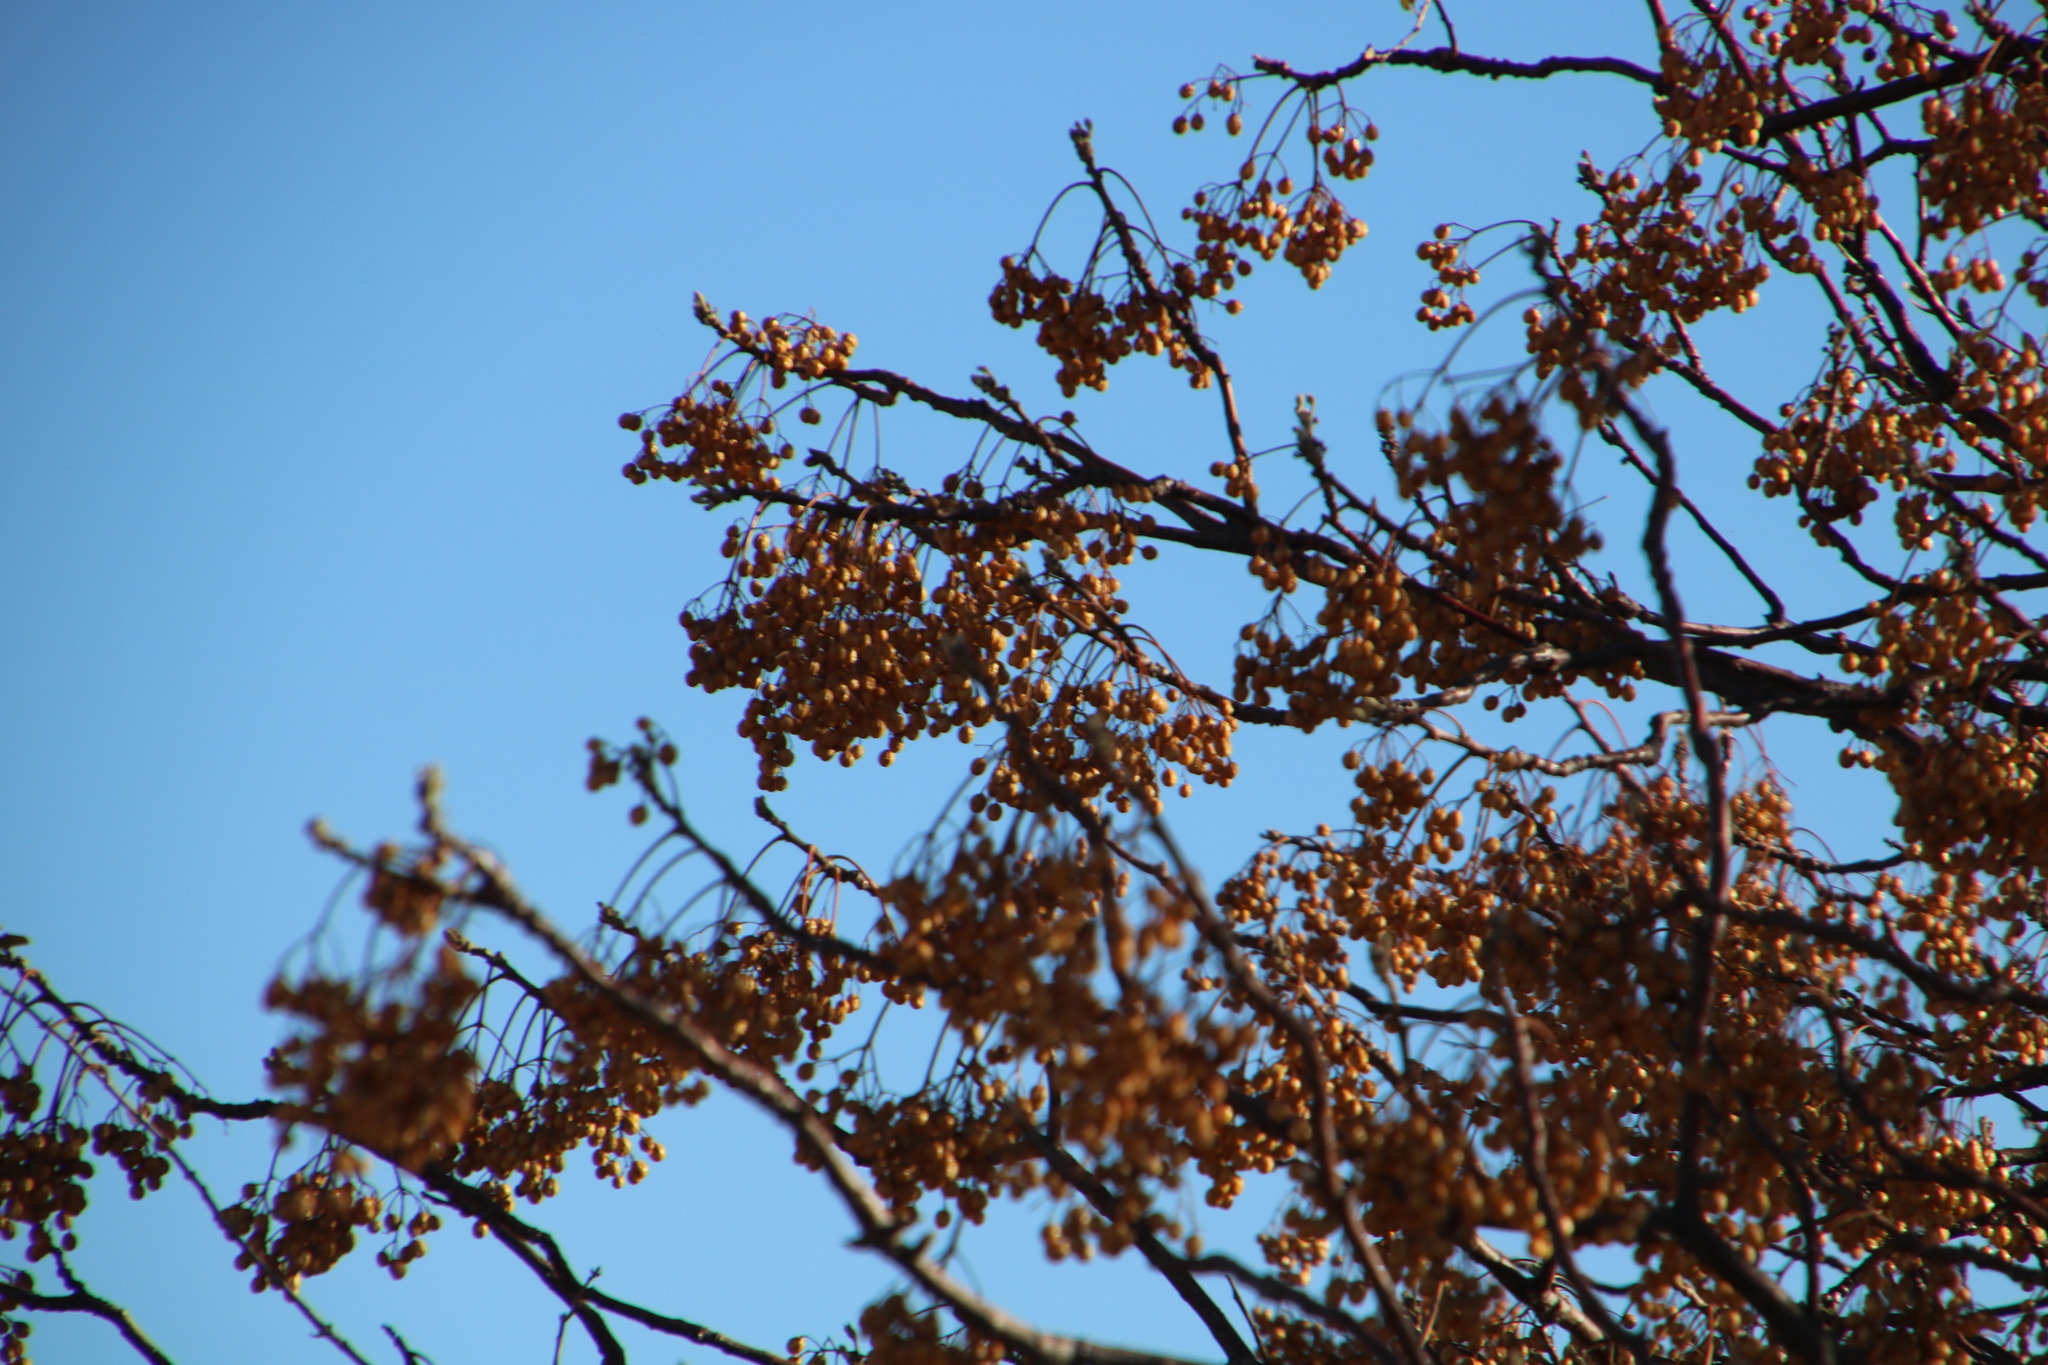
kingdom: Plantae
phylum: Tracheophyta
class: Magnoliopsida
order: Sapindales
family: Meliaceae
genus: Melia
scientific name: Melia azedarach
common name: Chinaberrytree
